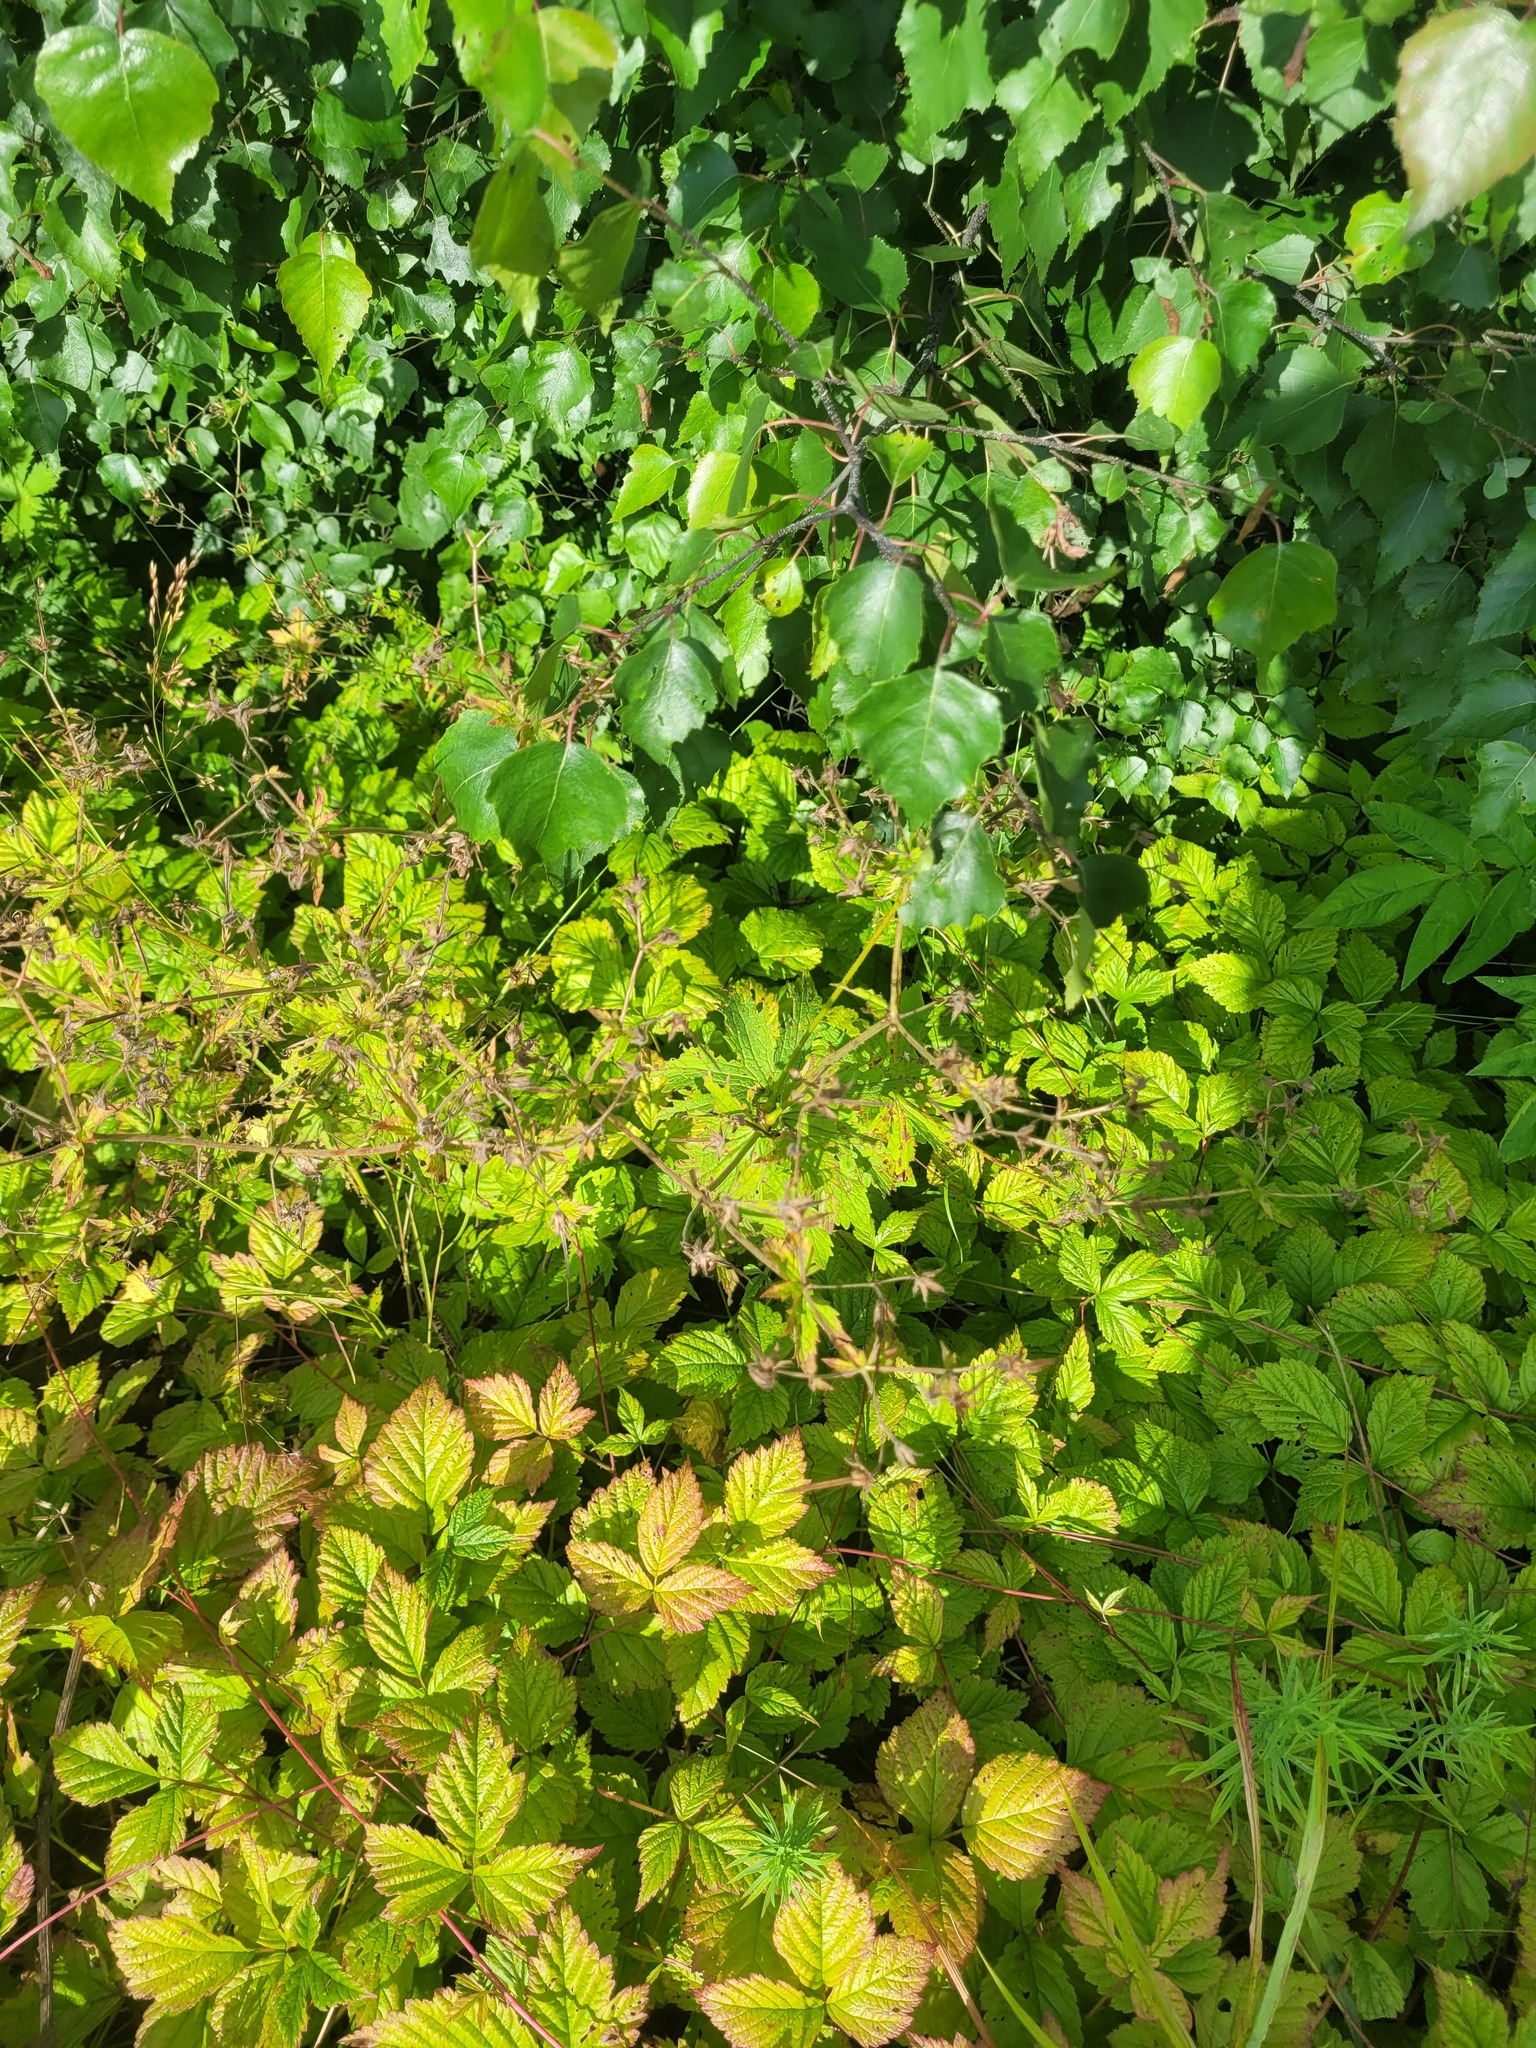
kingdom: Plantae
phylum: Tracheophyta
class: Magnoliopsida
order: Geraniales
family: Geraniaceae
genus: Geranium
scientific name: Geranium sylvaticum
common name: Wood crane's-bill
